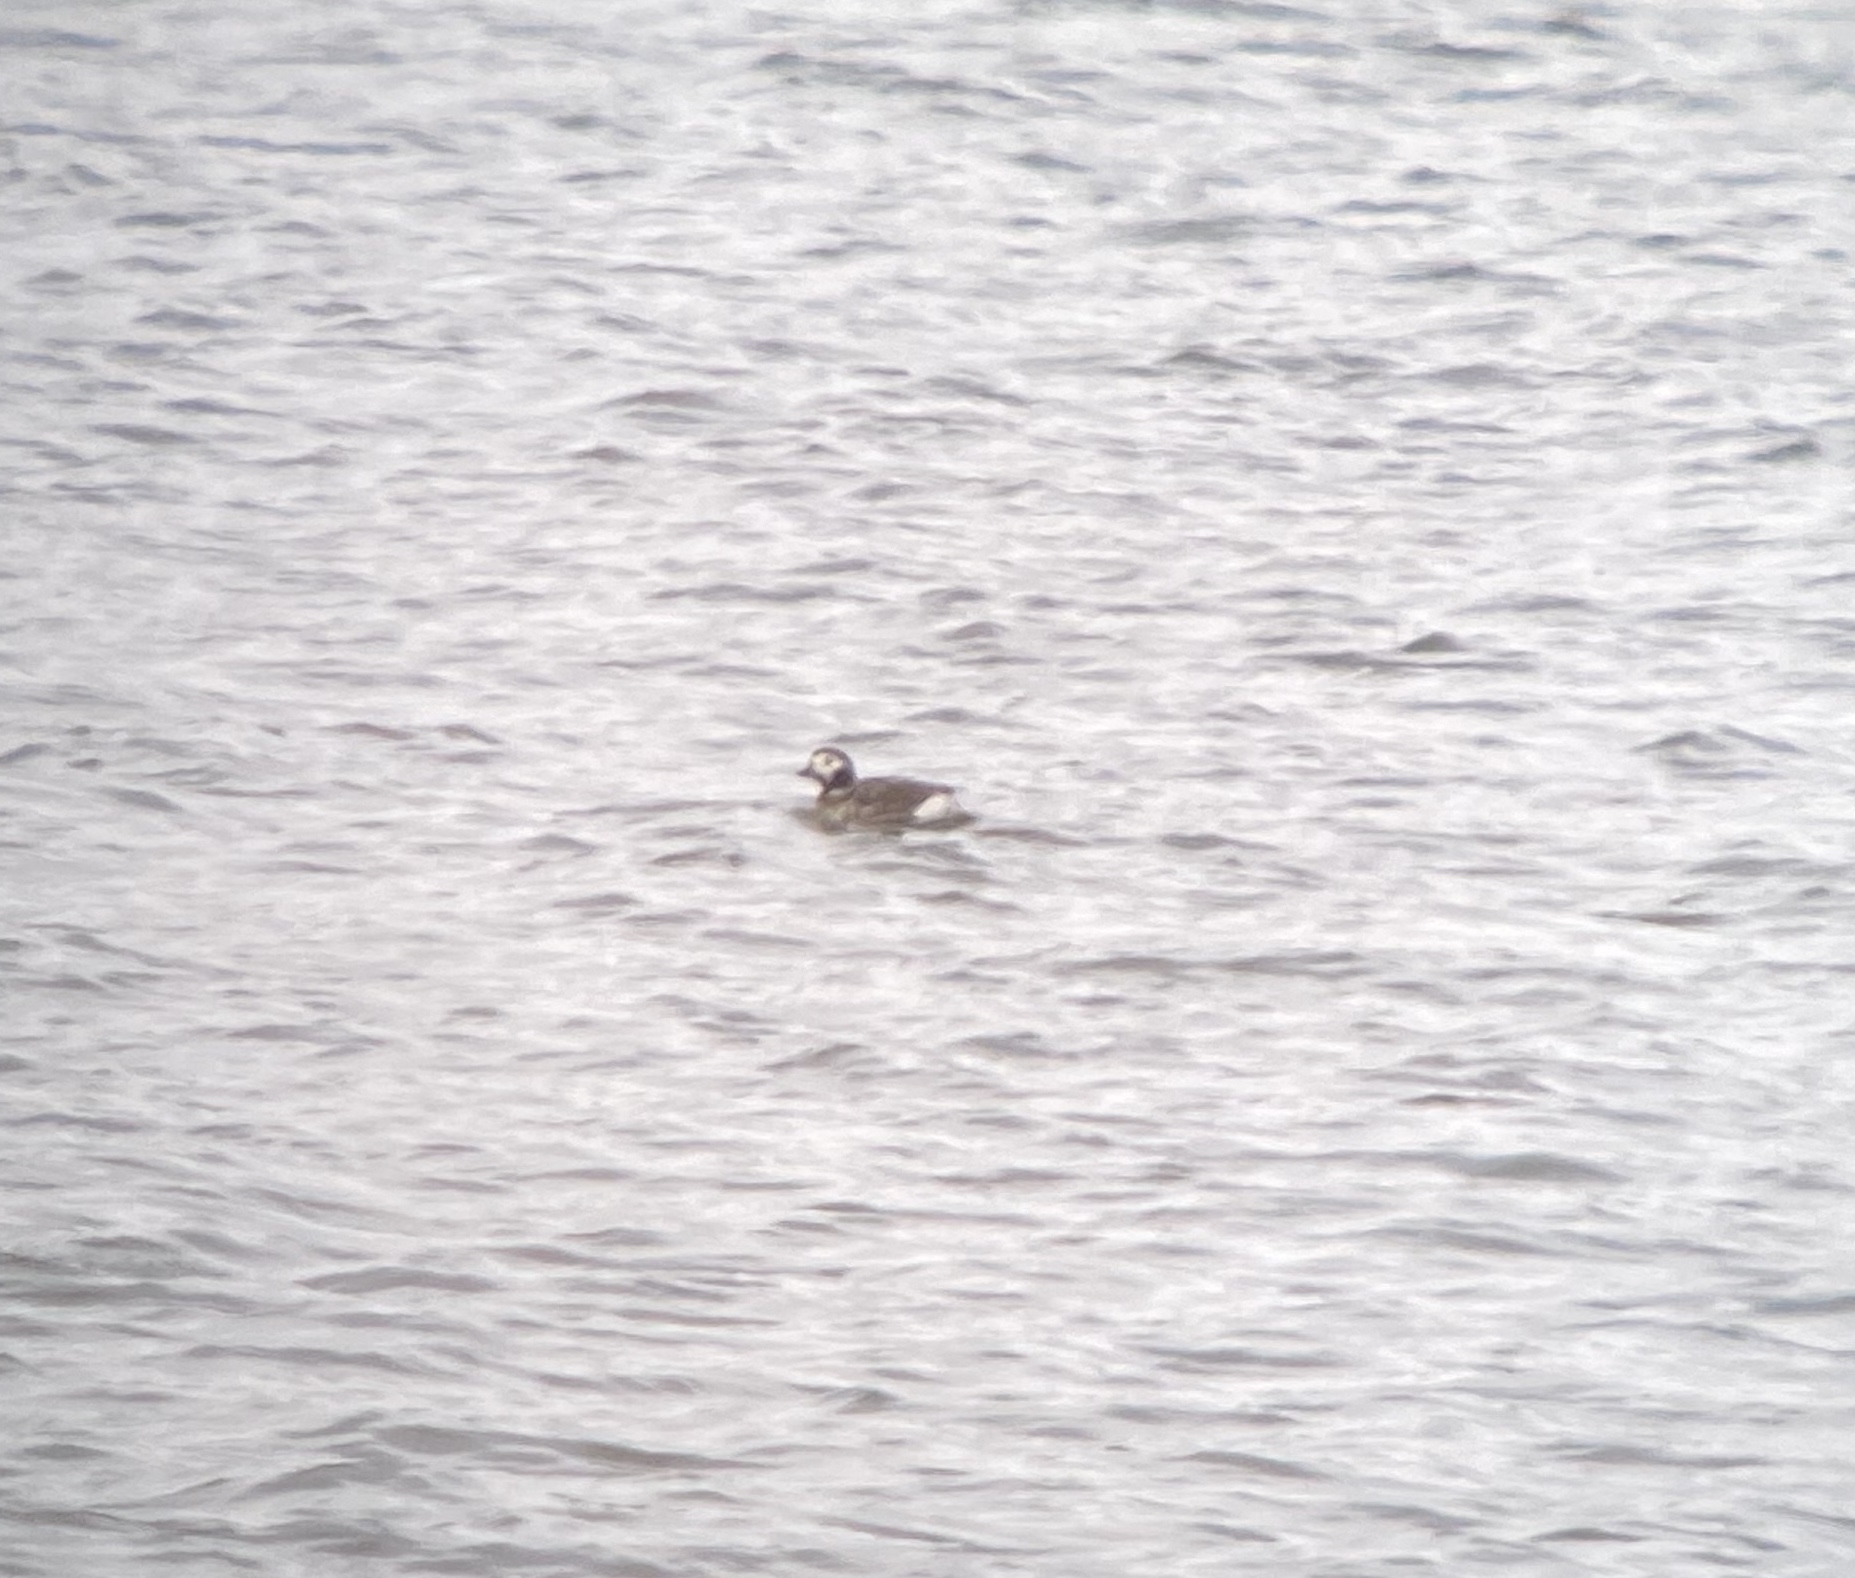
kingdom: Animalia
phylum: Chordata
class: Aves
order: Anseriformes
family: Anatidae
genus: Clangula
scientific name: Clangula hyemalis
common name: Long-tailed duck
